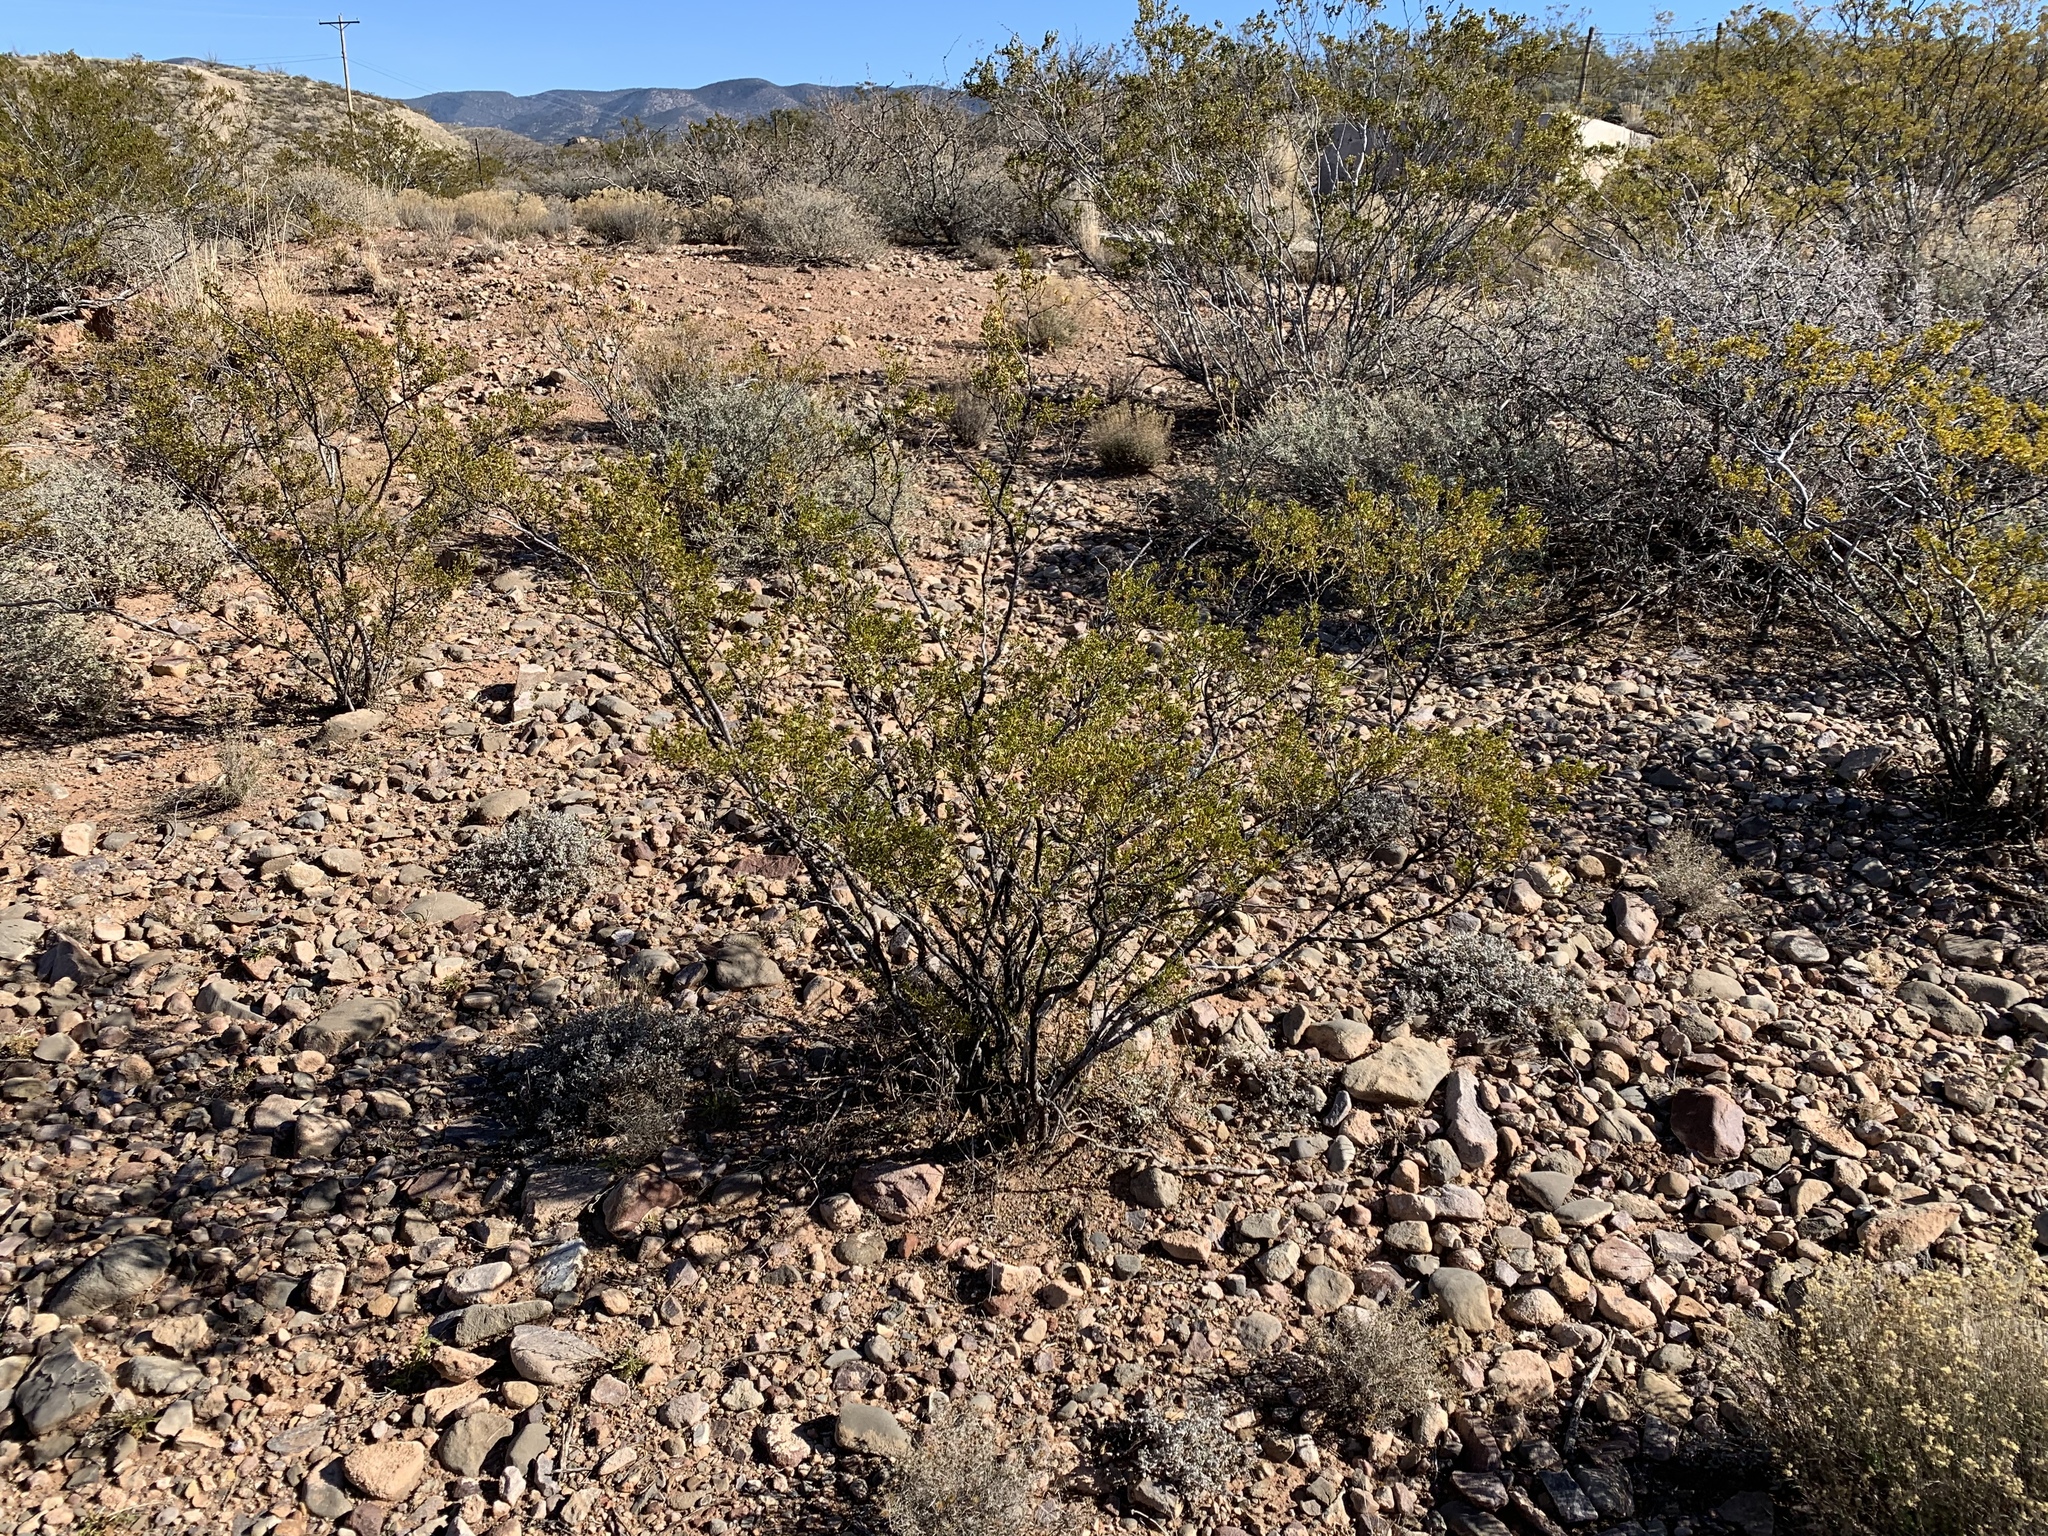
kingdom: Plantae
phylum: Tracheophyta
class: Magnoliopsida
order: Zygophyllales
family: Zygophyllaceae
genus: Larrea
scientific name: Larrea tridentata
